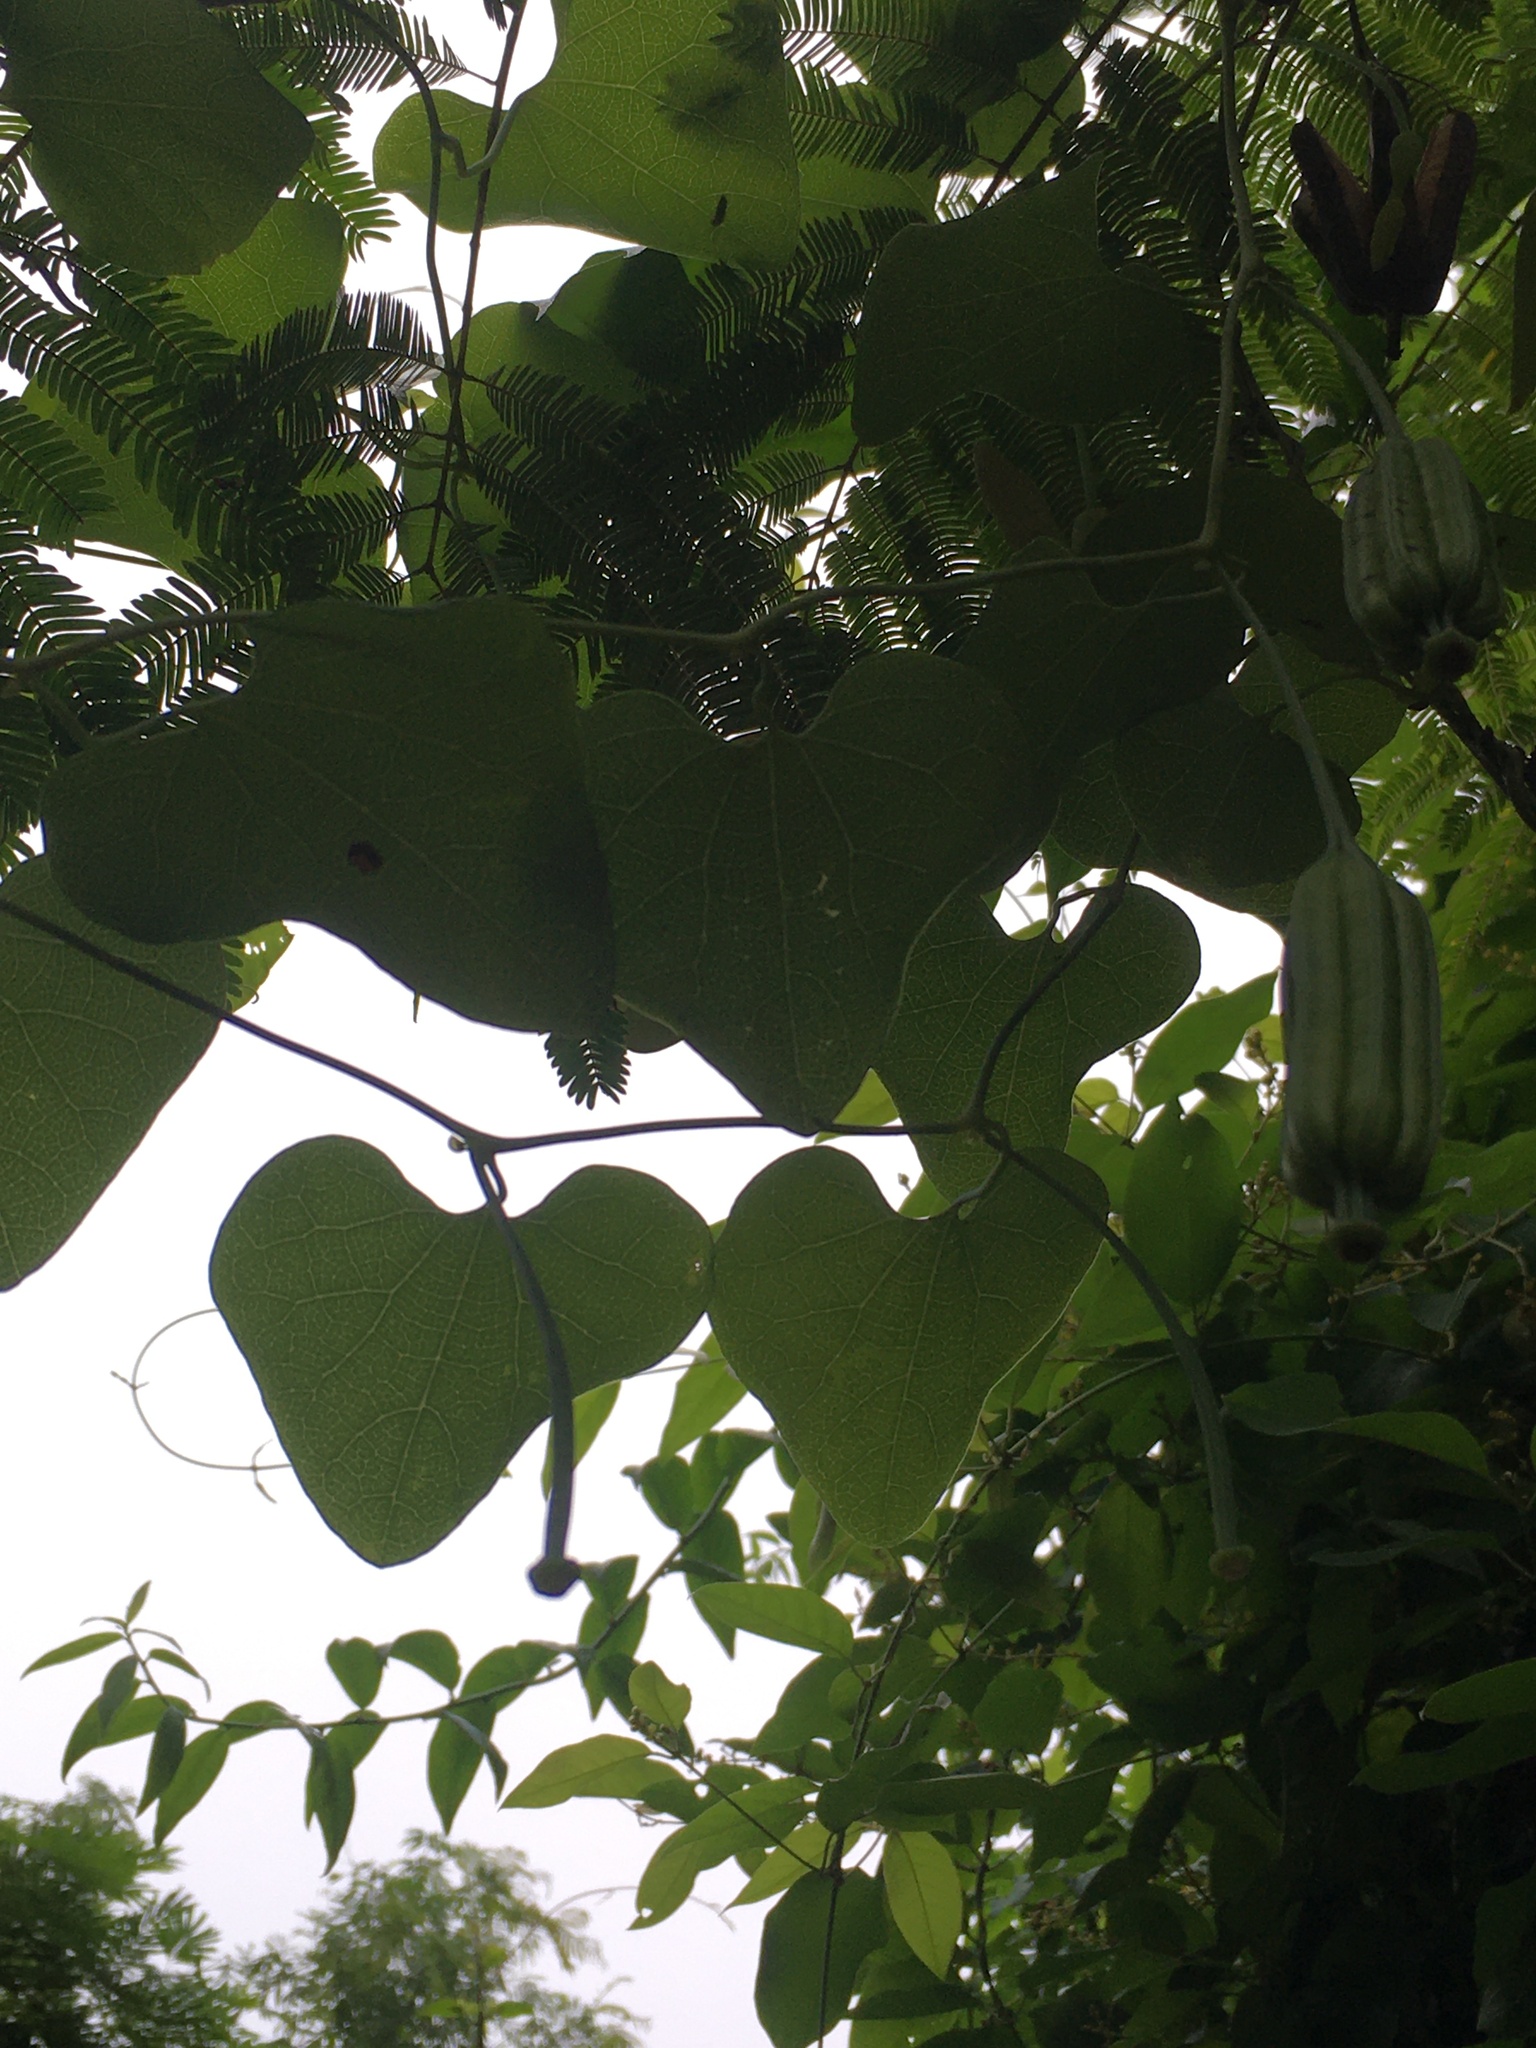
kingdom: Plantae
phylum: Tracheophyta
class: Magnoliopsida
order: Piperales
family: Aristolochiaceae
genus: Aristolochia
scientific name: Aristolochia littoralis
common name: Duck
